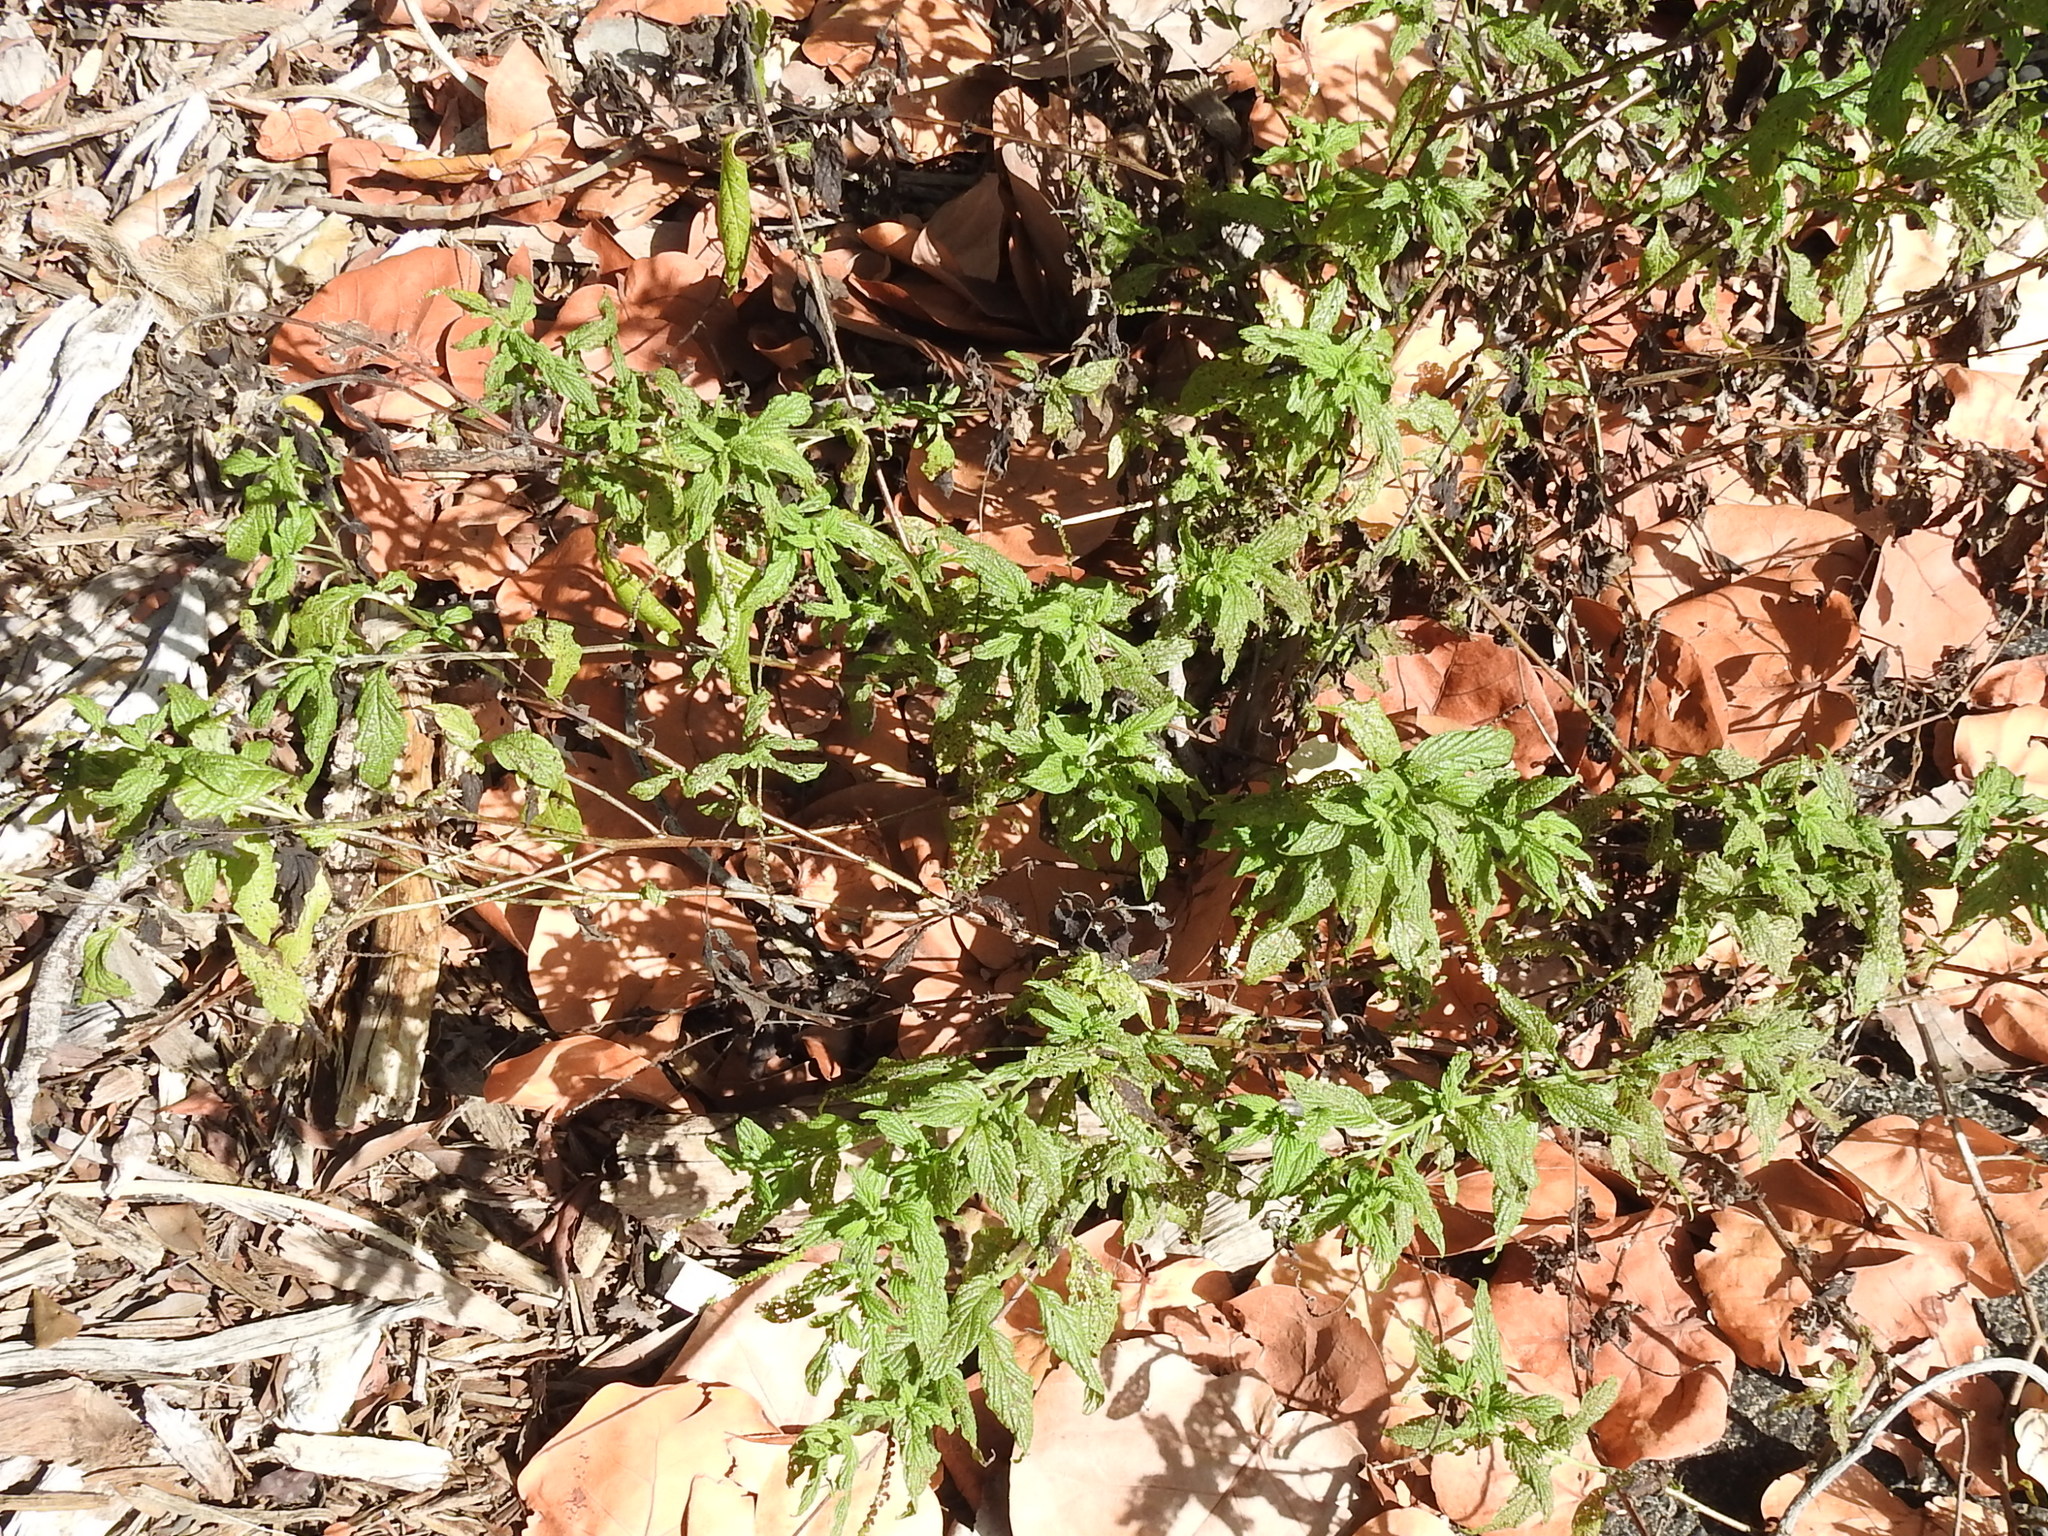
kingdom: Plantae
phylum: Tracheophyta
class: Magnoliopsida
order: Boraginales
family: Heliotropiaceae
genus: Heliotropium
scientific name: Heliotropium angiospermum
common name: Eye bright
